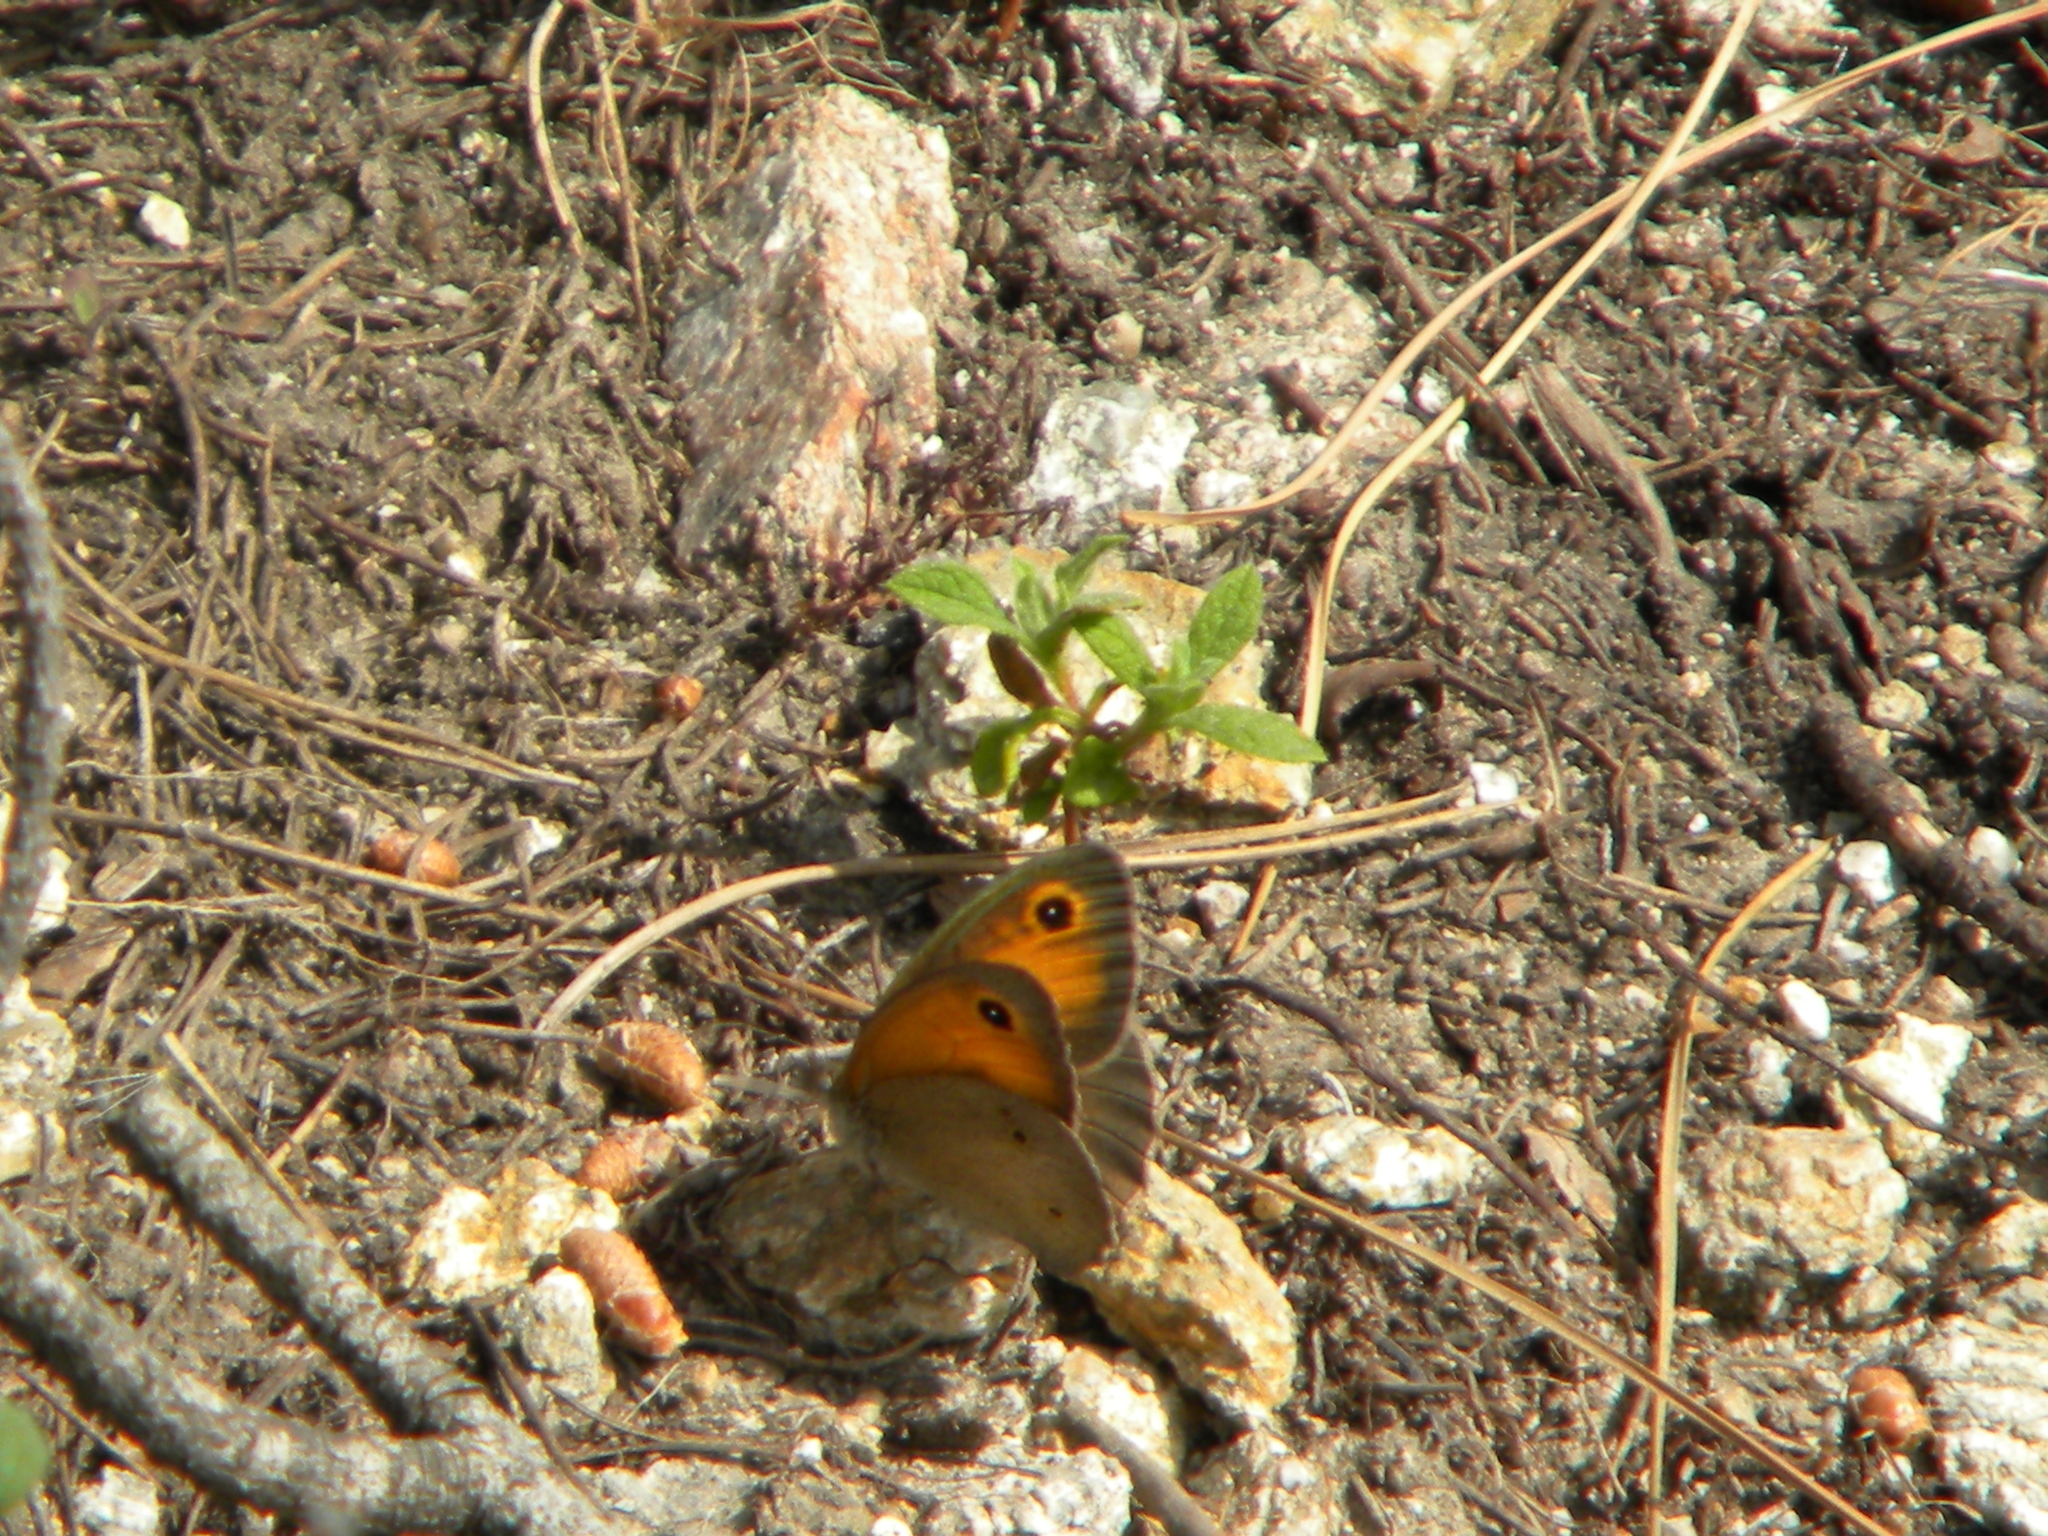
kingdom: Animalia
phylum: Arthropoda
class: Insecta
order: Lepidoptera
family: Nymphalidae
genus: Maniola
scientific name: Maniola telmessia
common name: Persian meadow brown
